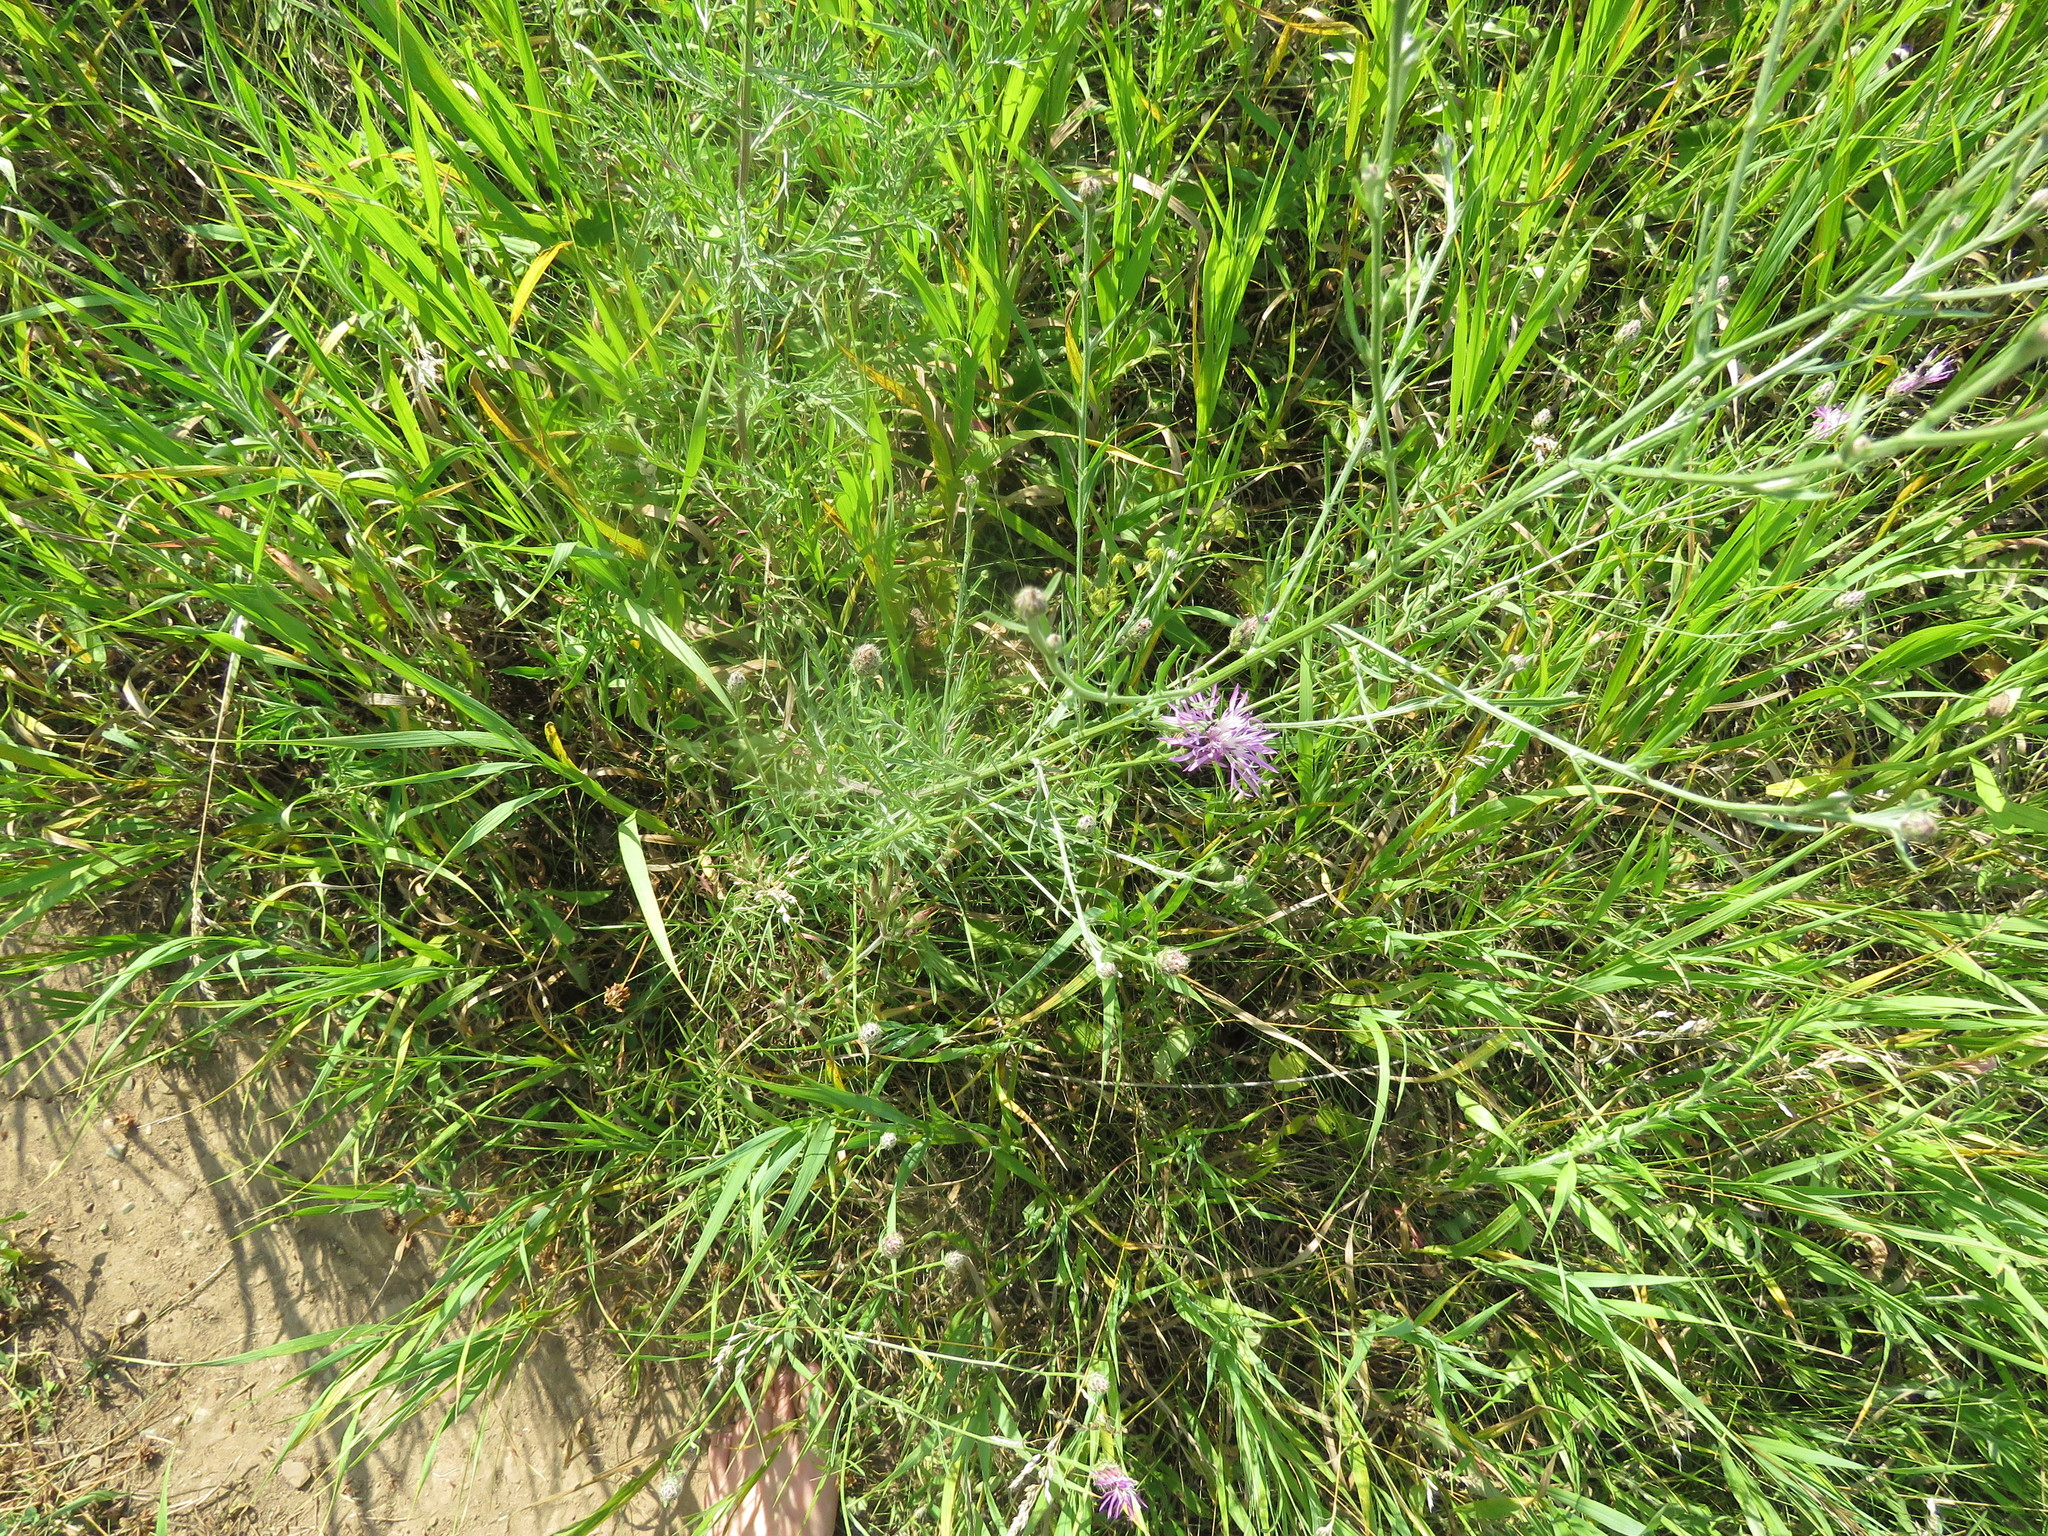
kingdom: Plantae
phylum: Tracheophyta
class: Magnoliopsida
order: Asterales
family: Asteraceae
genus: Centaurea
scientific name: Centaurea stoebe
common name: Spotted knapweed
